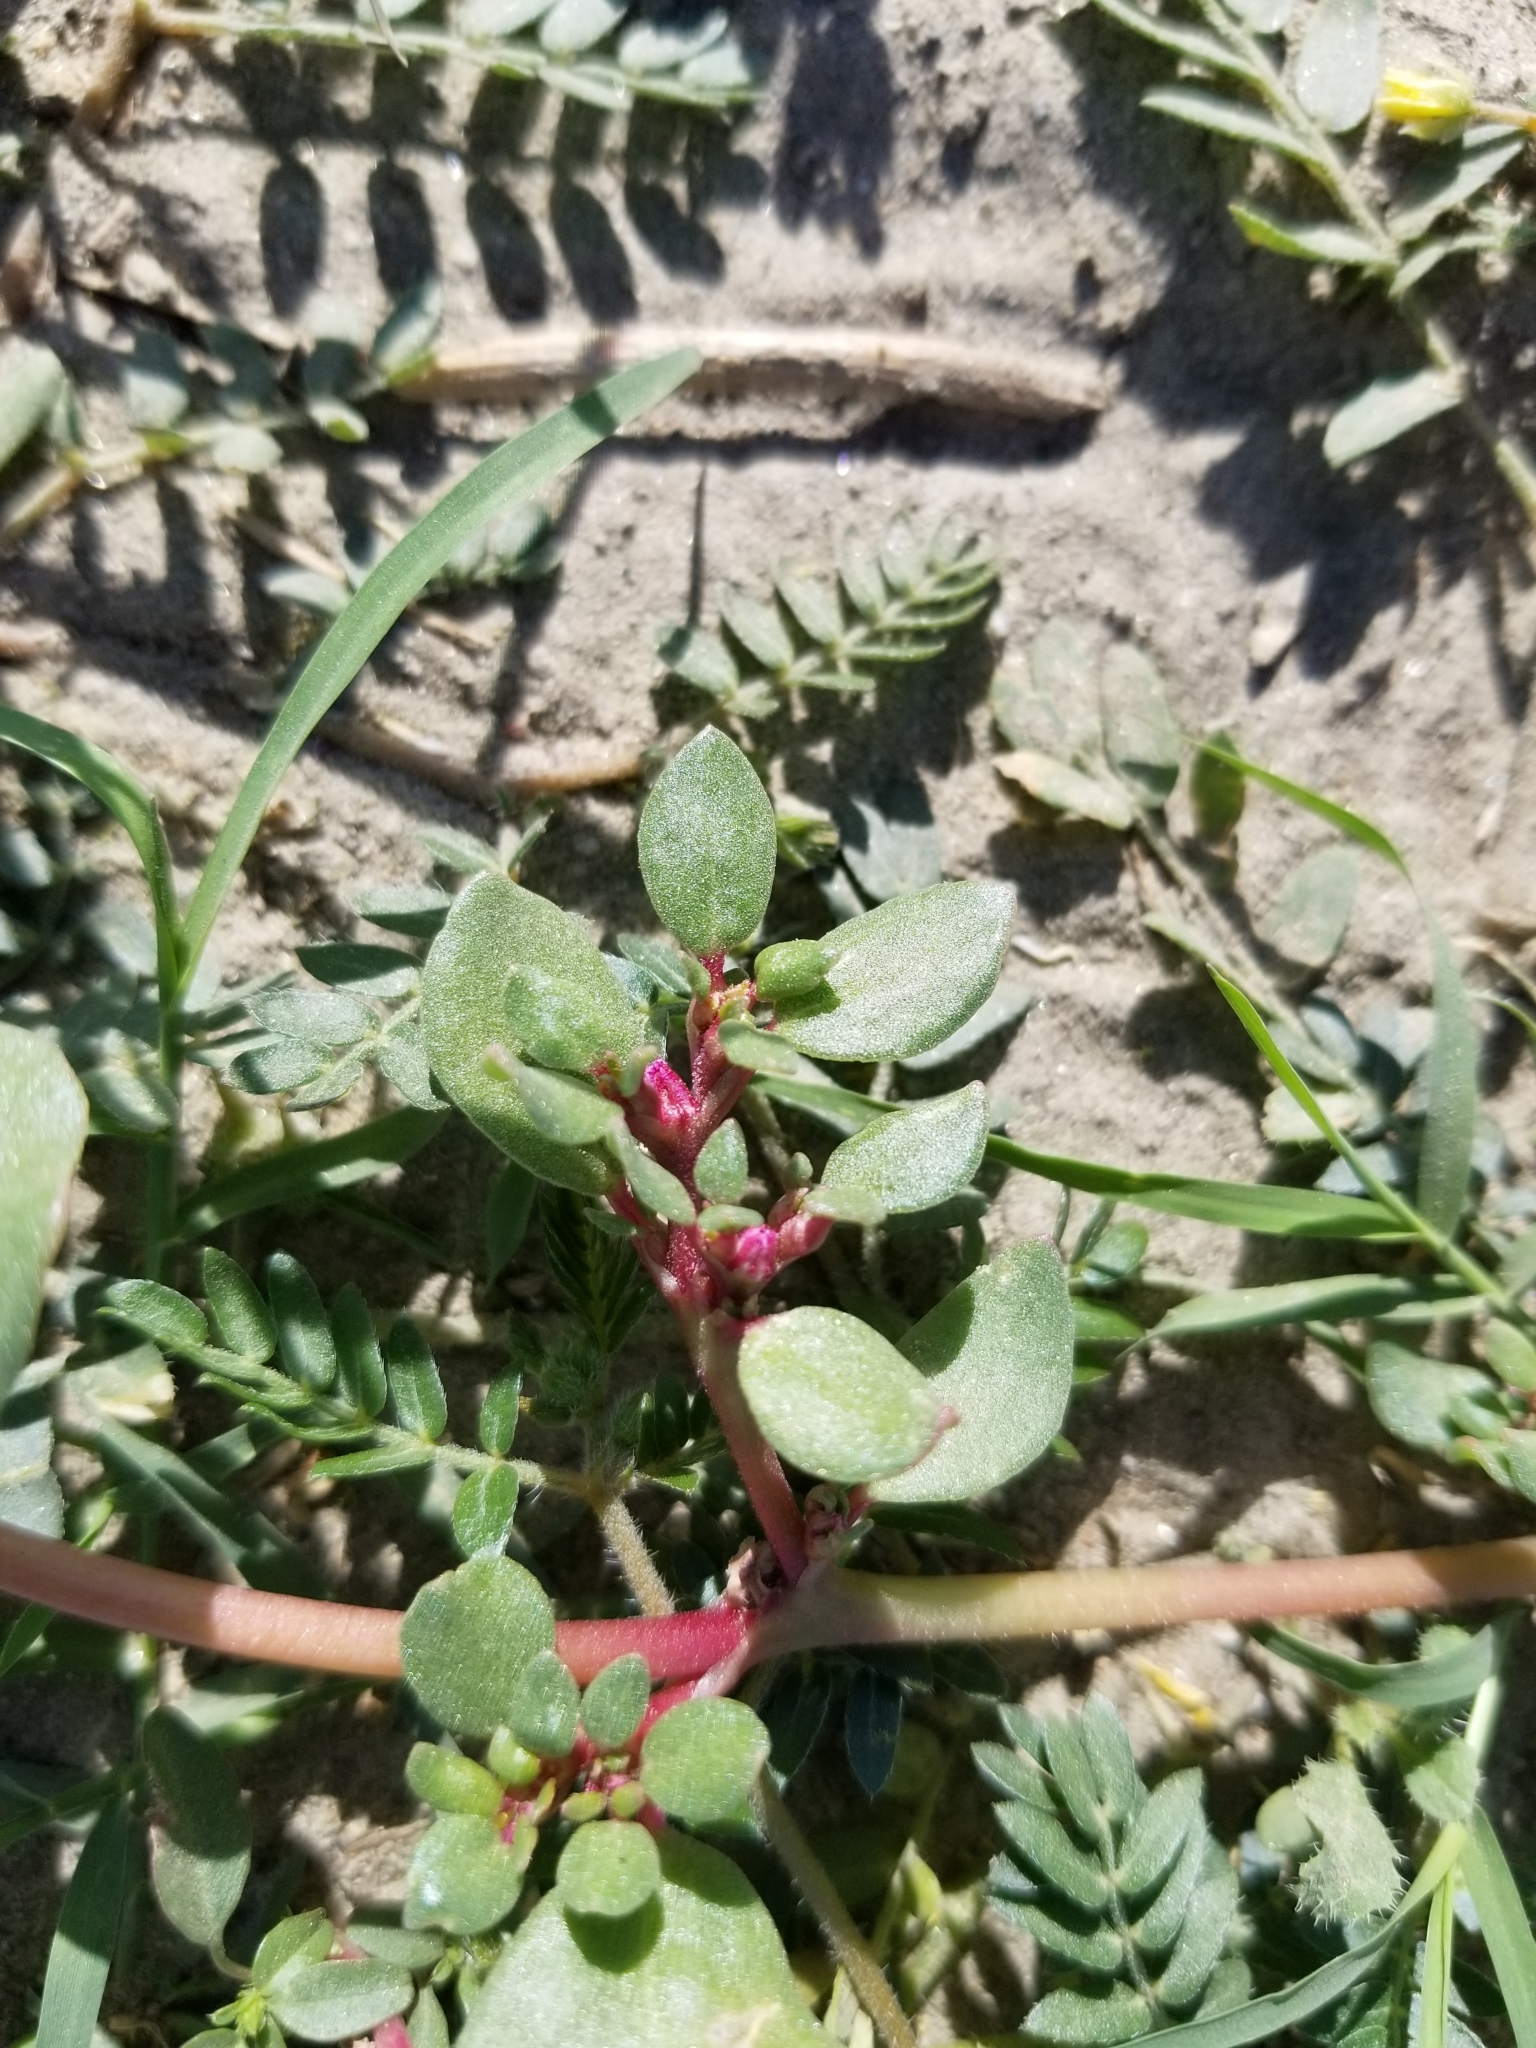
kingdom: Plantae
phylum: Tracheophyta
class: Magnoliopsida
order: Caryophyllales
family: Aizoaceae
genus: Trianthema
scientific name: Trianthema portulacastrum
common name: Desert horsepurslane
